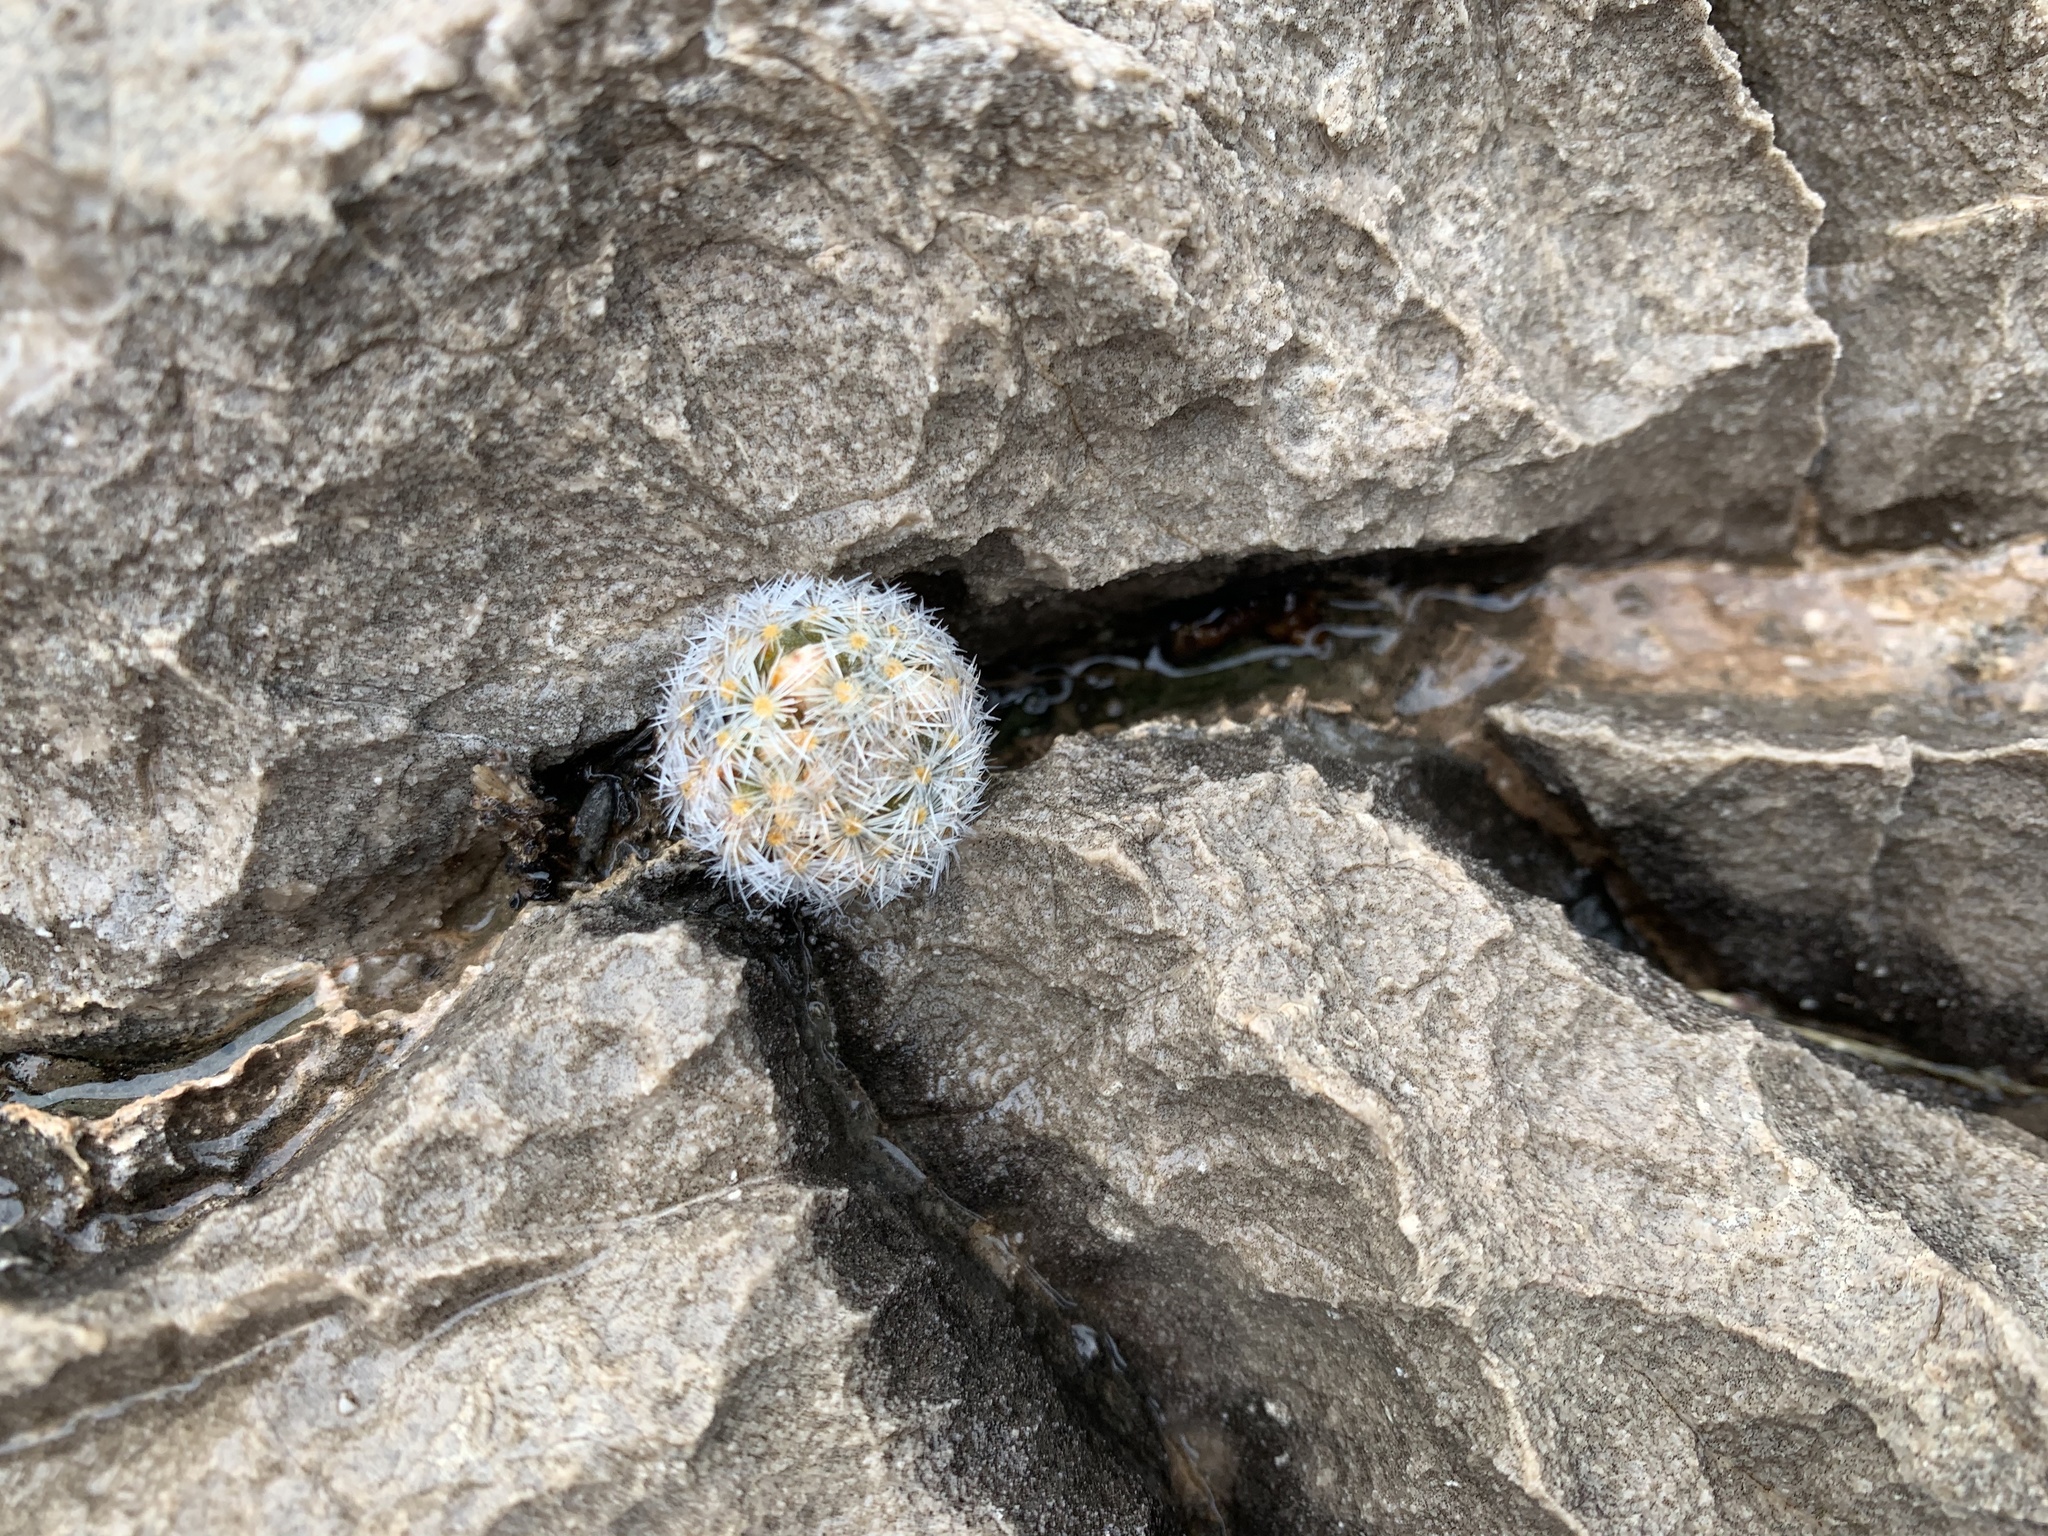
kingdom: Plantae
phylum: Tracheophyta
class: Magnoliopsida
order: Caryophyllales
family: Cactaceae
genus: Mammillaria
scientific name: Mammillaria lasiacantha
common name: Lace-spine nipple cactus
